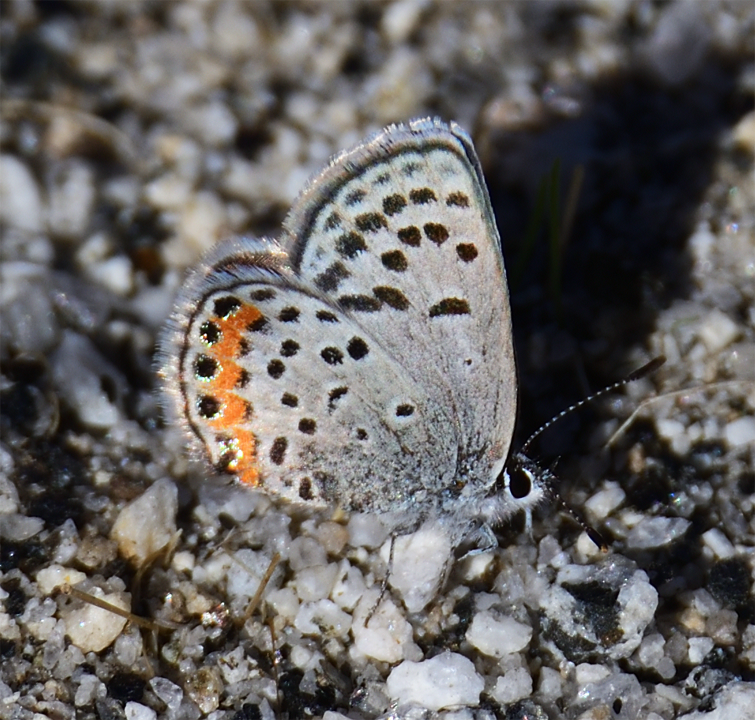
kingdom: Animalia
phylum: Arthropoda
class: Insecta
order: Lepidoptera
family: Lycaenidae
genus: Icaricia
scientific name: Icaricia acmon
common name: Acmon blue
